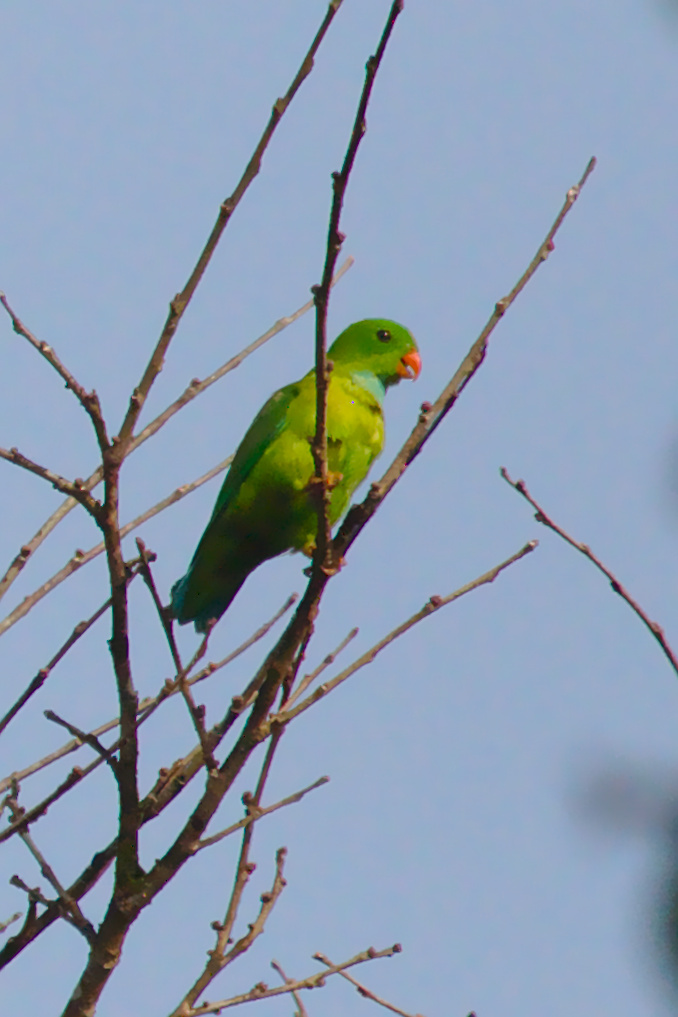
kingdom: Animalia
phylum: Chordata
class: Aves
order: Psittaciformes
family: Psittacidae
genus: Loriculus
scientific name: Loriculus vernalis
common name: Vernal hanging parrot
